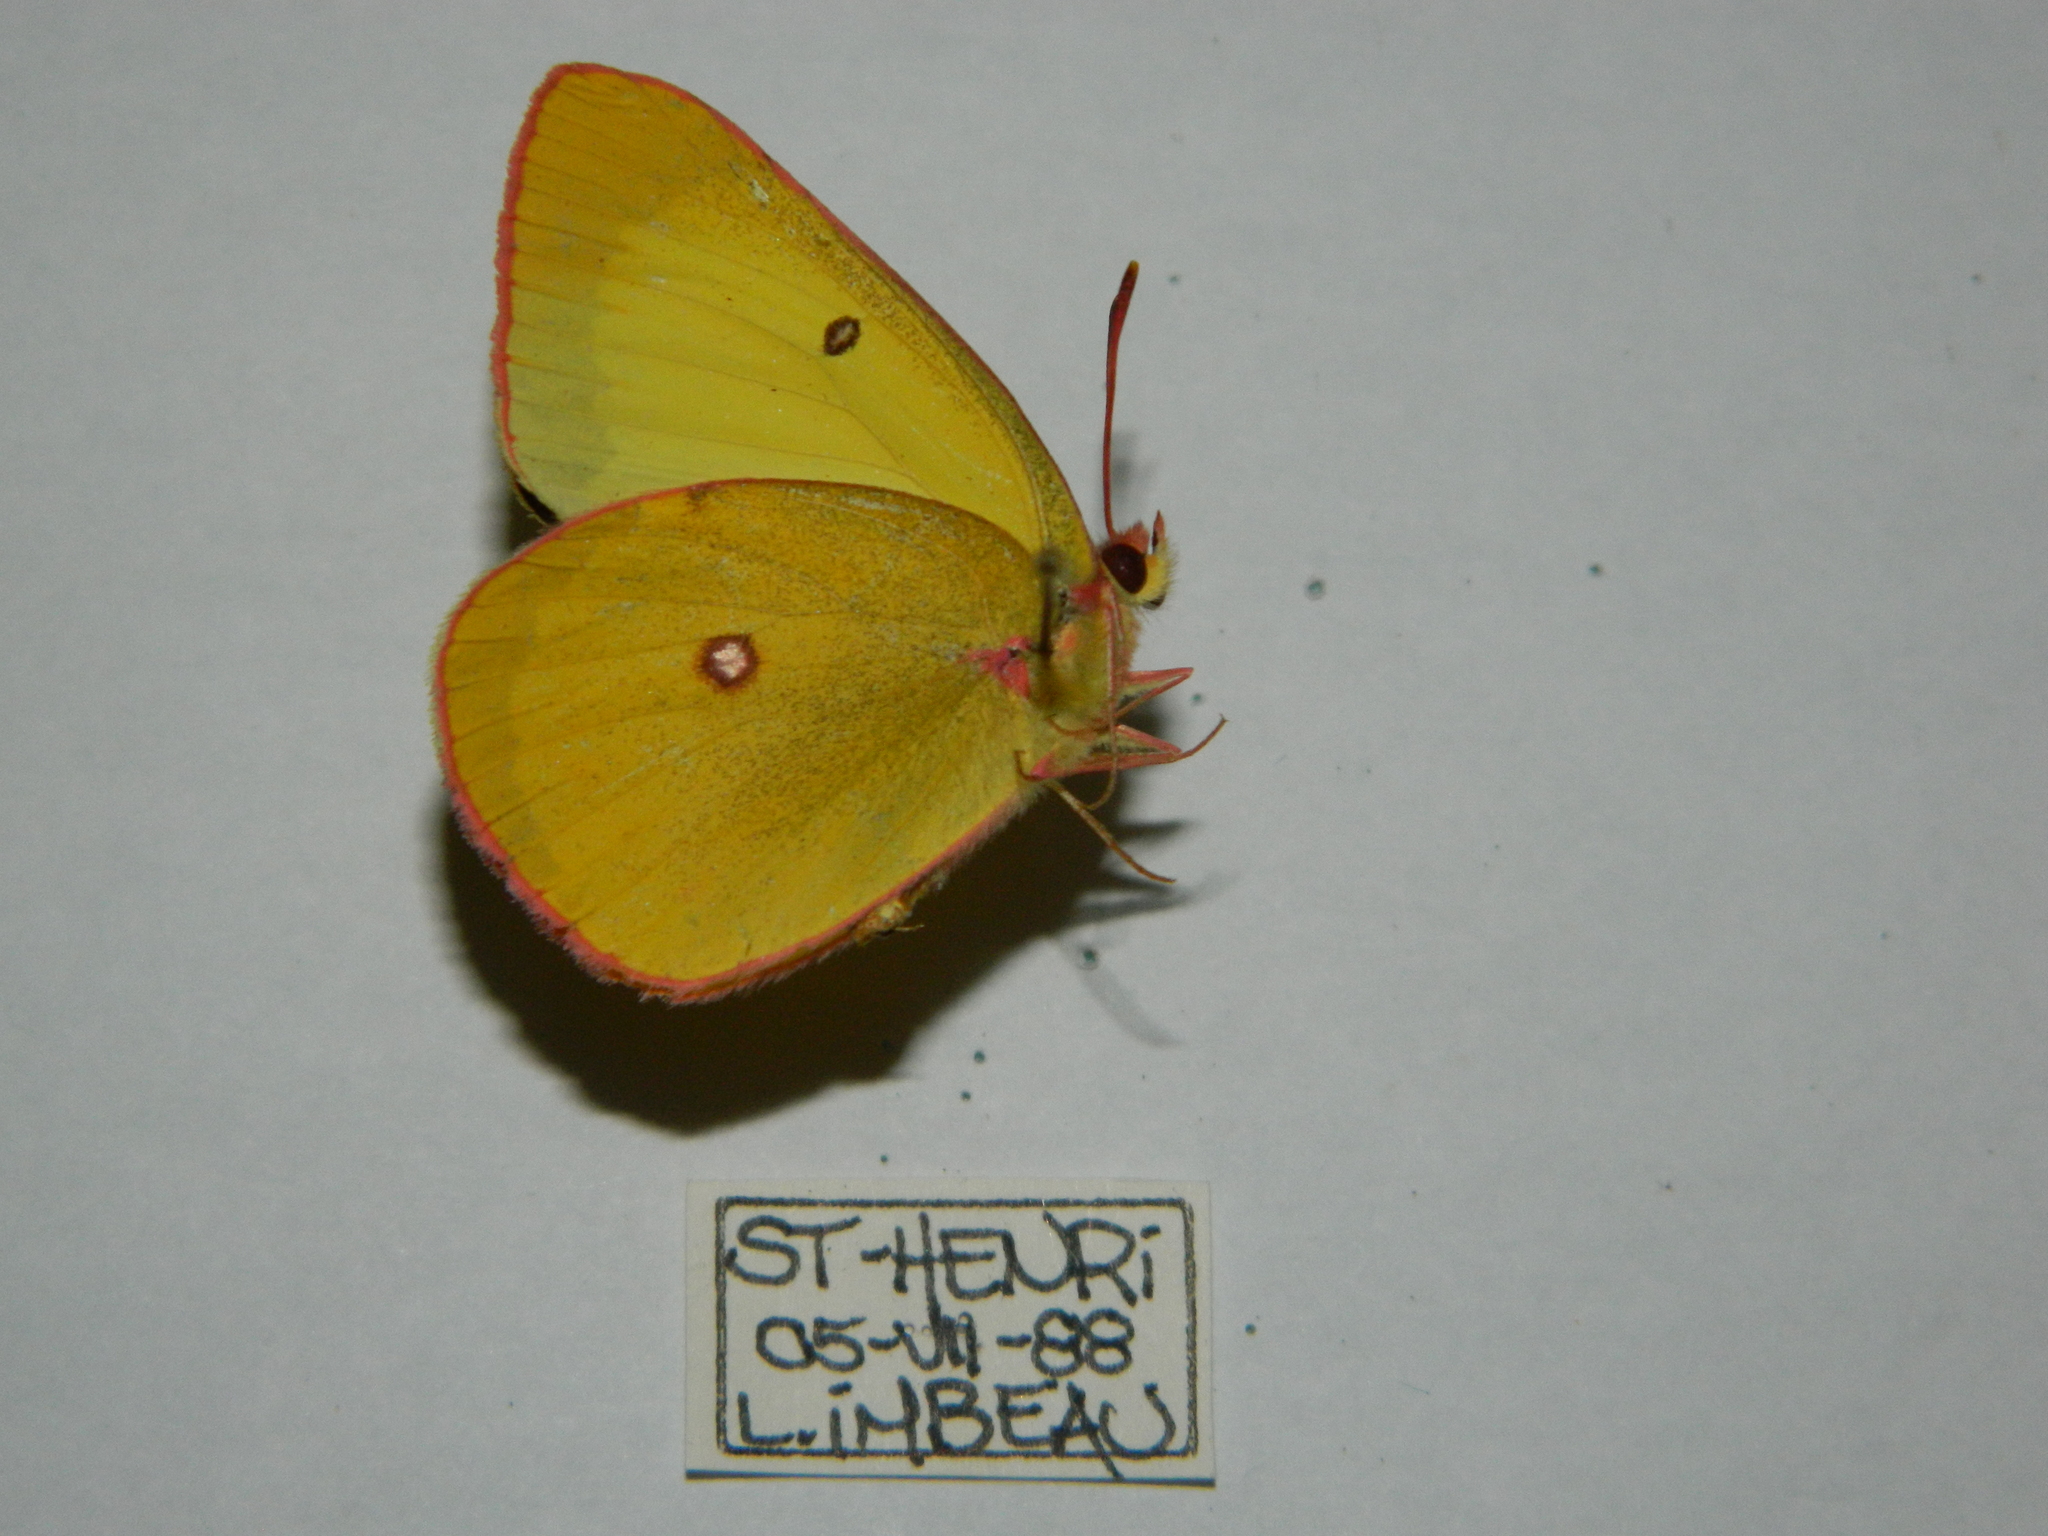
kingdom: Animalia
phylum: Arthropoda
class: Insecta
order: Lepidoptera
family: Pieridae
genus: Colias
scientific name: Colias interior
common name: Pink-edged sulphur
